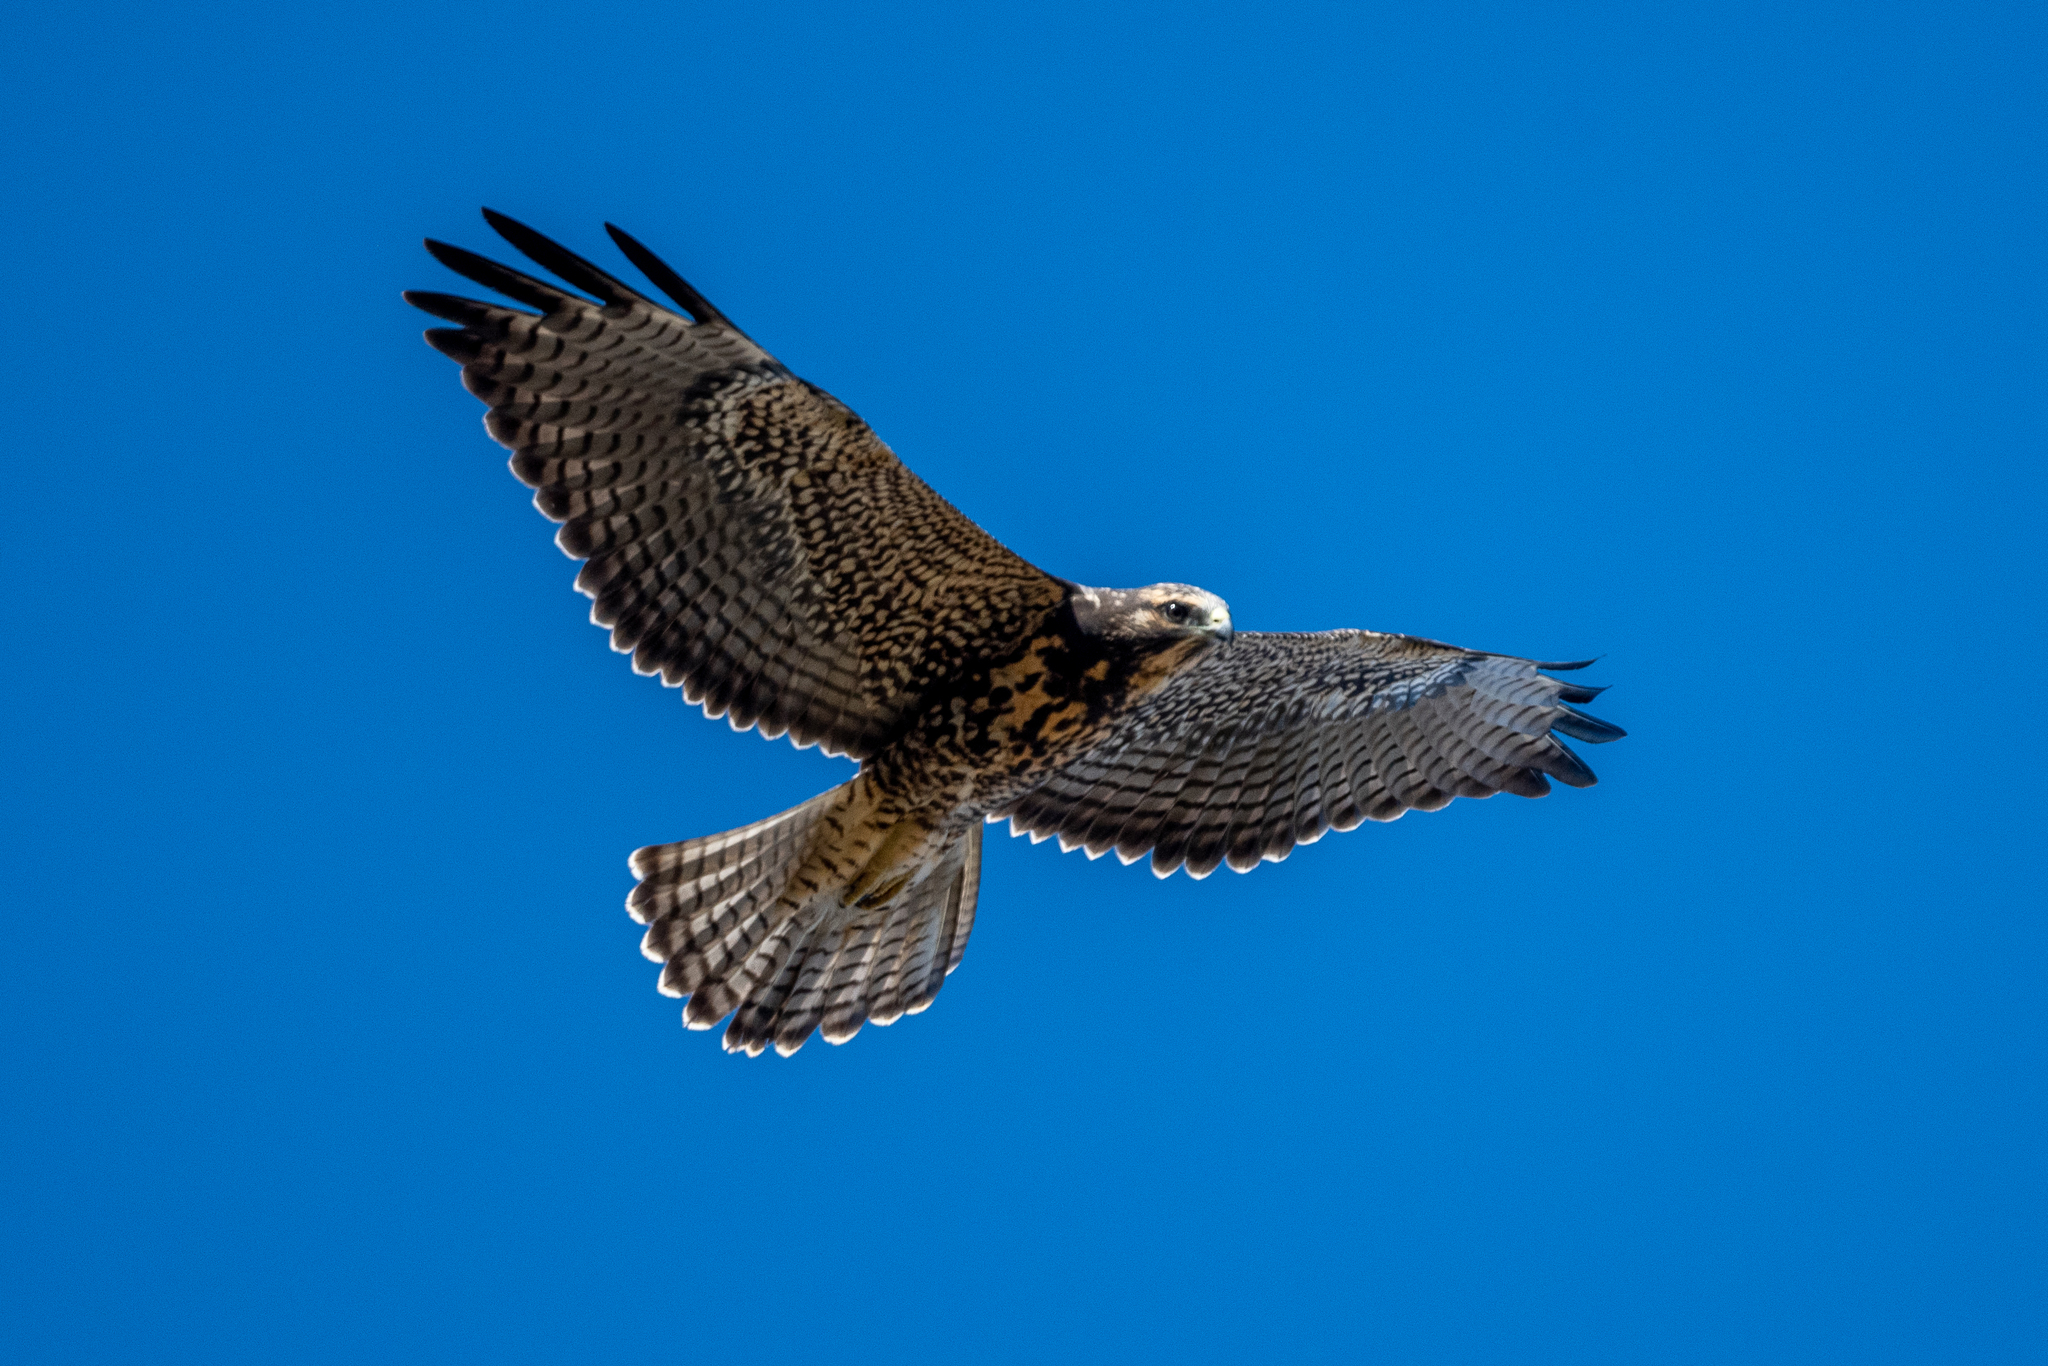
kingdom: Animalia
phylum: Chordata
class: Aves
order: Accipitriformes
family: Accipitridae
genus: Buteo
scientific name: Buteo swainsoni
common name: Swainson's hawk
